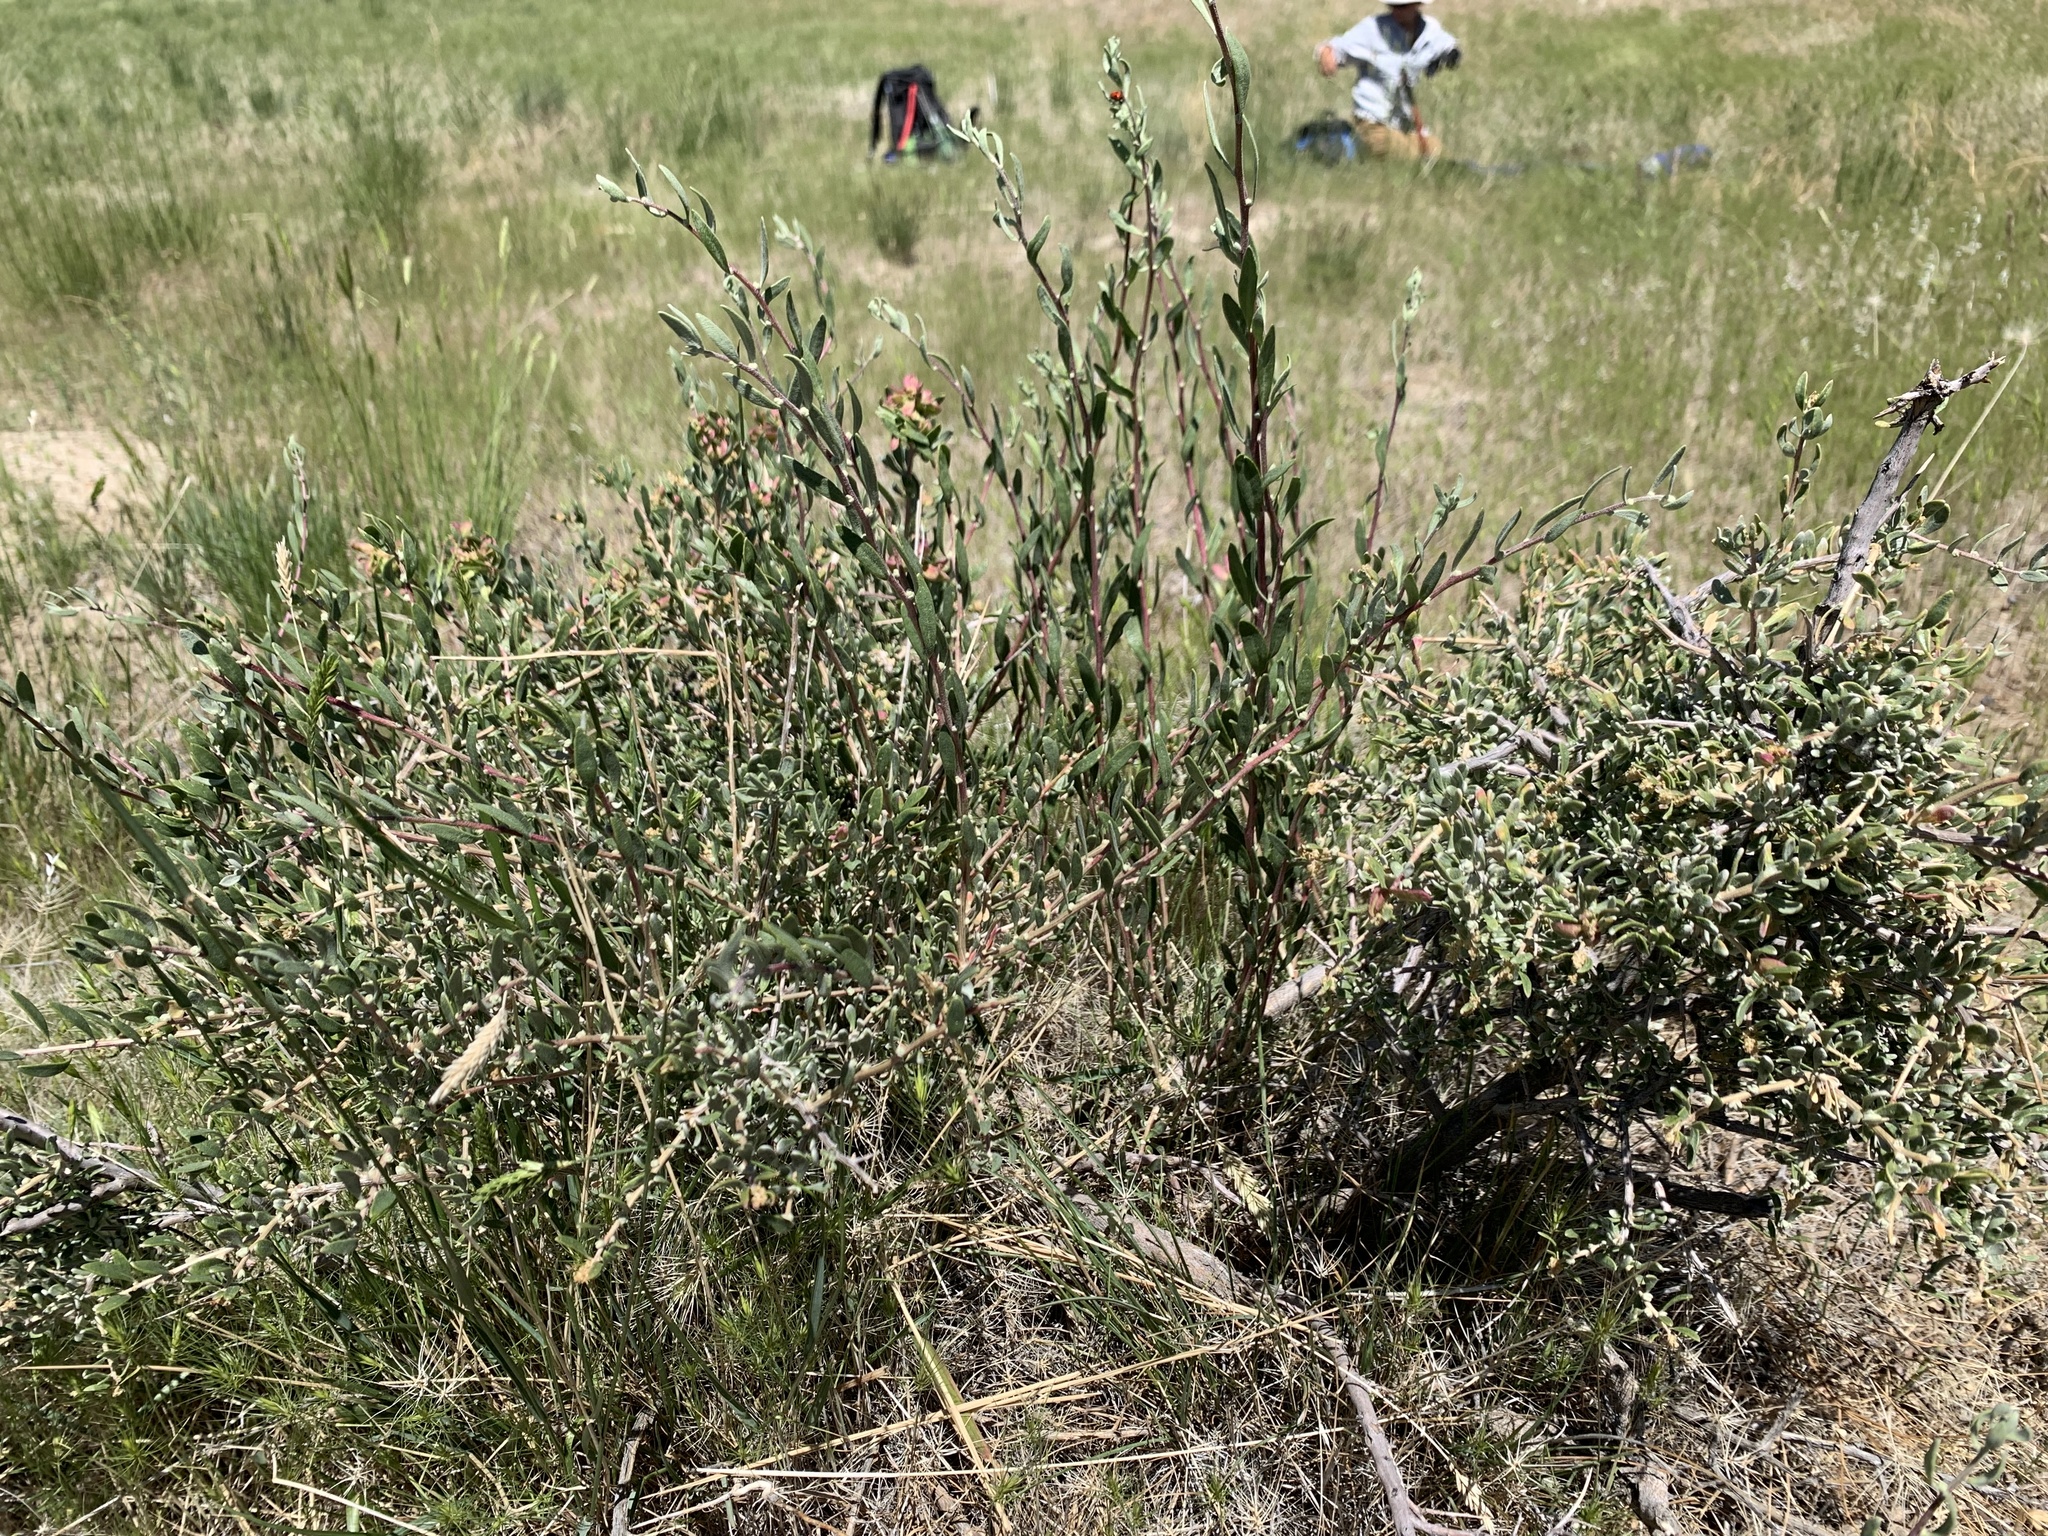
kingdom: Plantae
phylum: Tracheophyta
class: Magnoliopsida
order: Caryophyllales
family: Amaranthaceae
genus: Grayia
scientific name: Grayia spinosa
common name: Spiny hopsage
